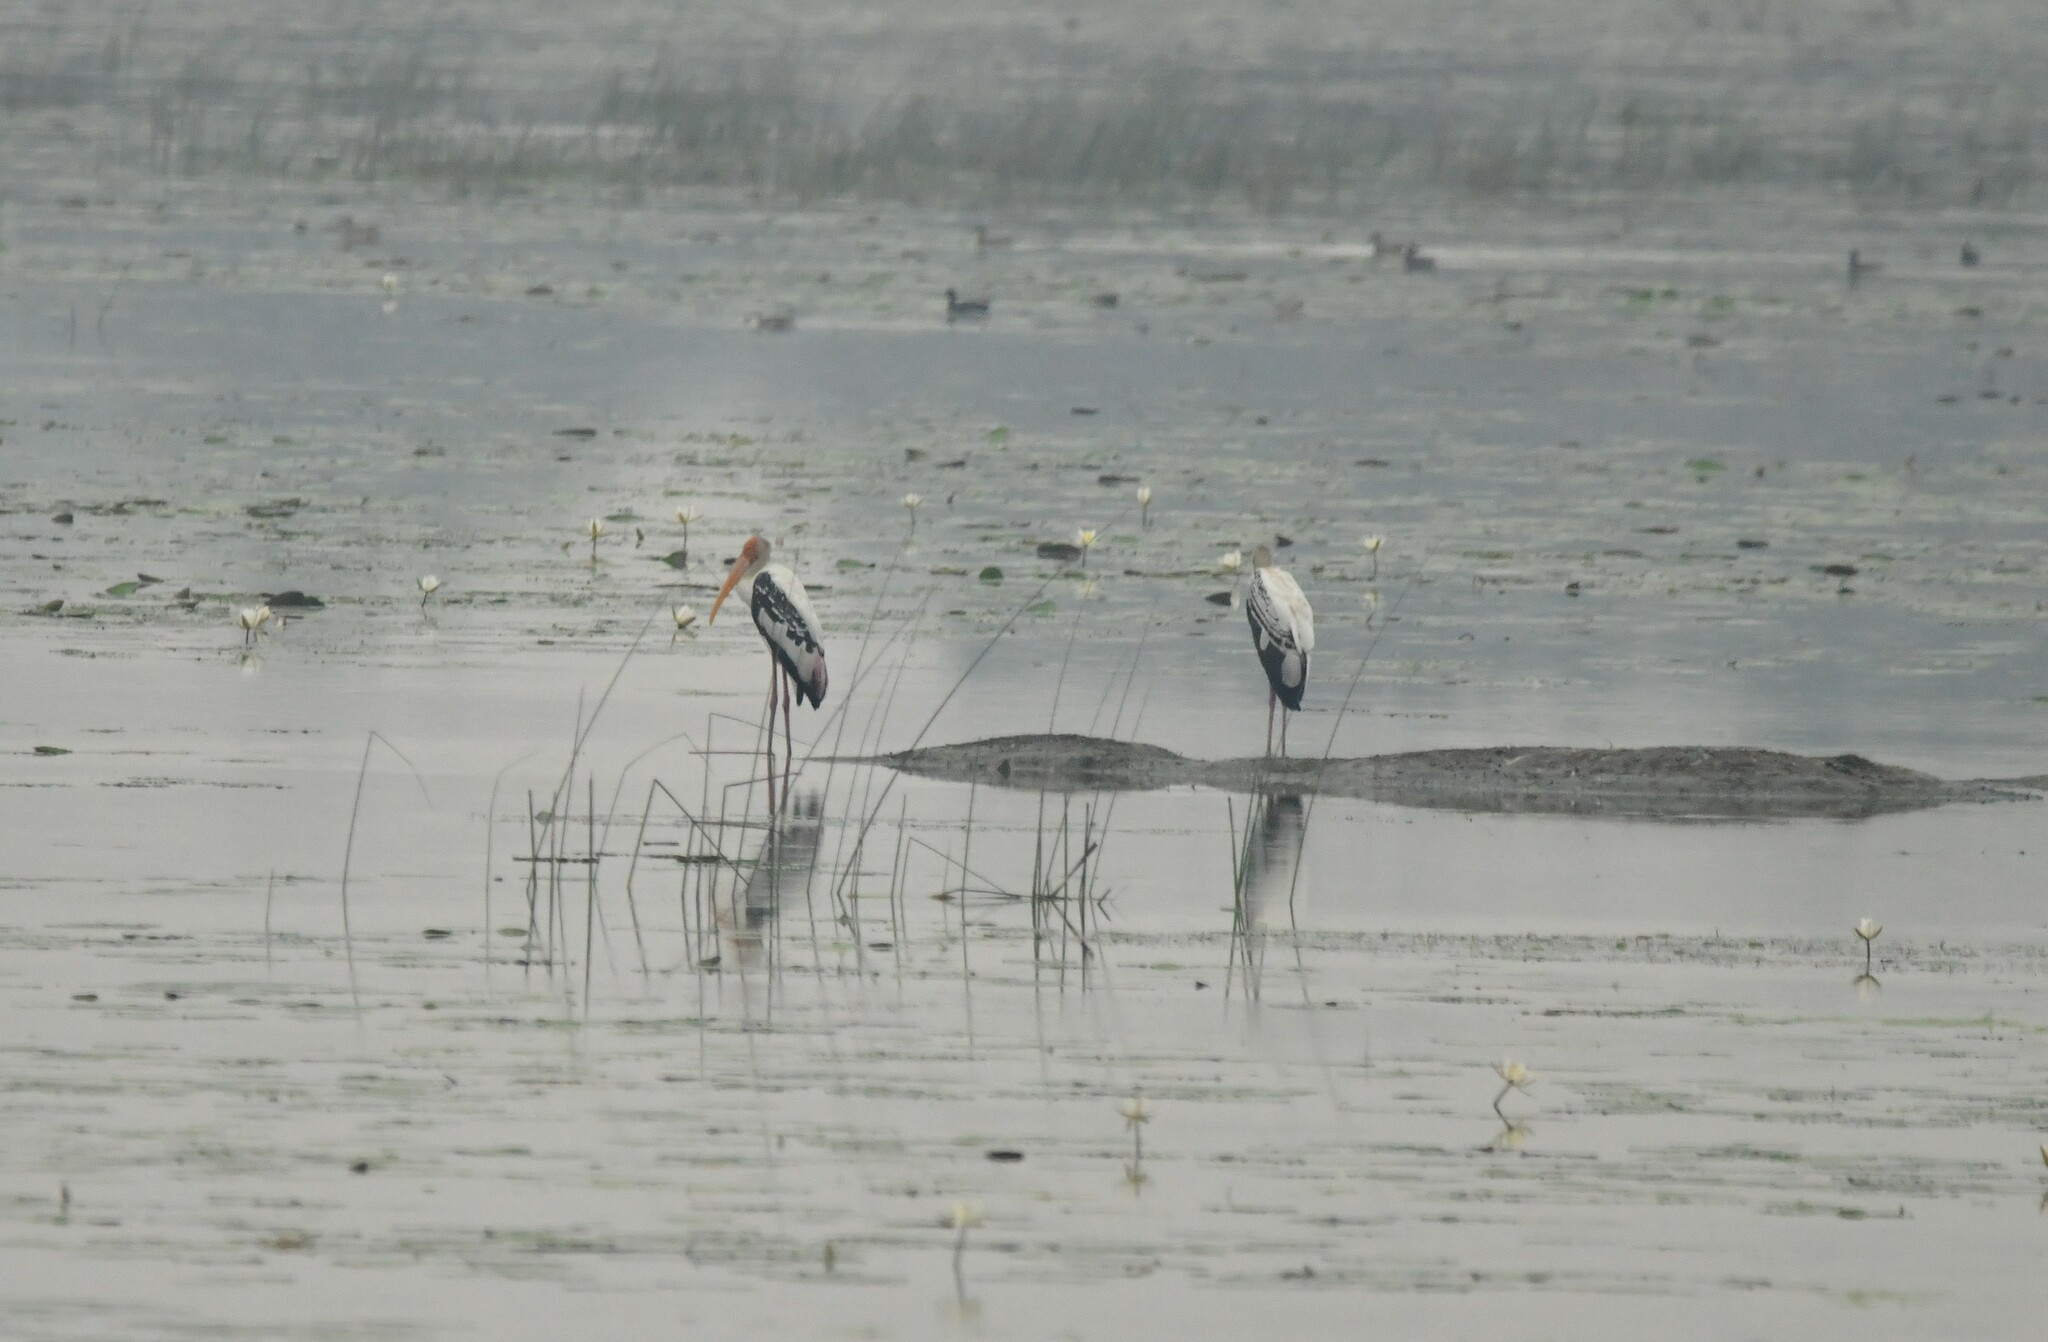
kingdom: Animalia
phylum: Chordata
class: Aves
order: Ciconiiformes
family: Ciconiidae
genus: Mycteria
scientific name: Mycteria leucocephala
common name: Painted stork
